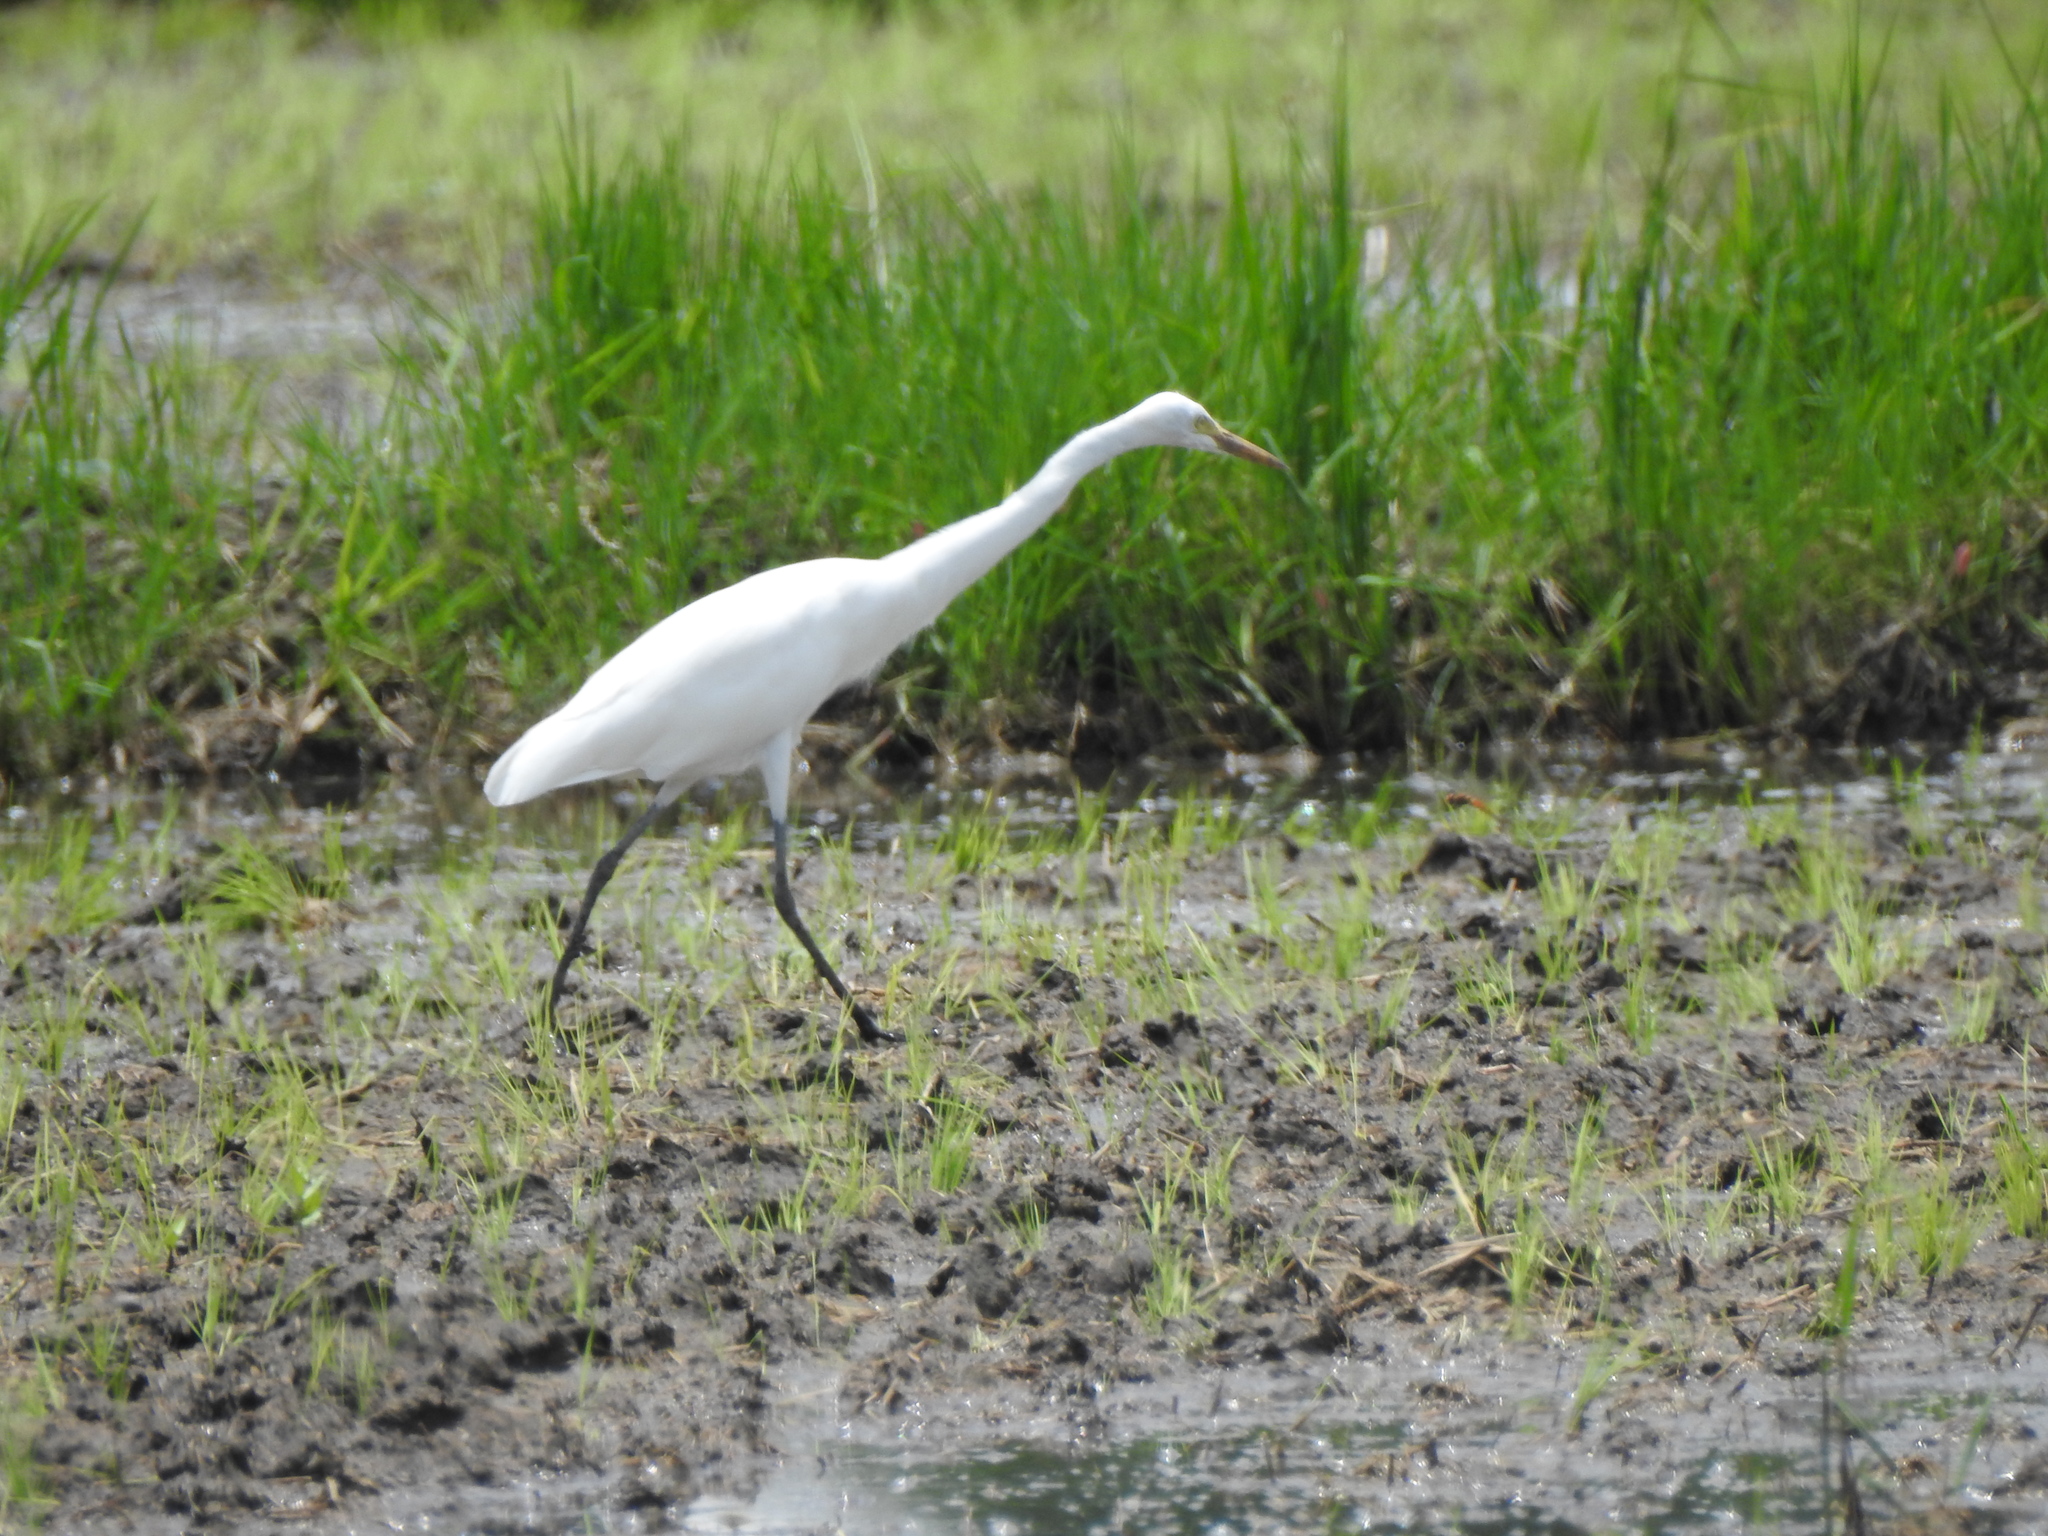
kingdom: Animalia
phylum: Chordata
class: Aves
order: Pelecaniformes
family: Ardeidae
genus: Egretta
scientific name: Egretta intermedia
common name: Intermediate egret
